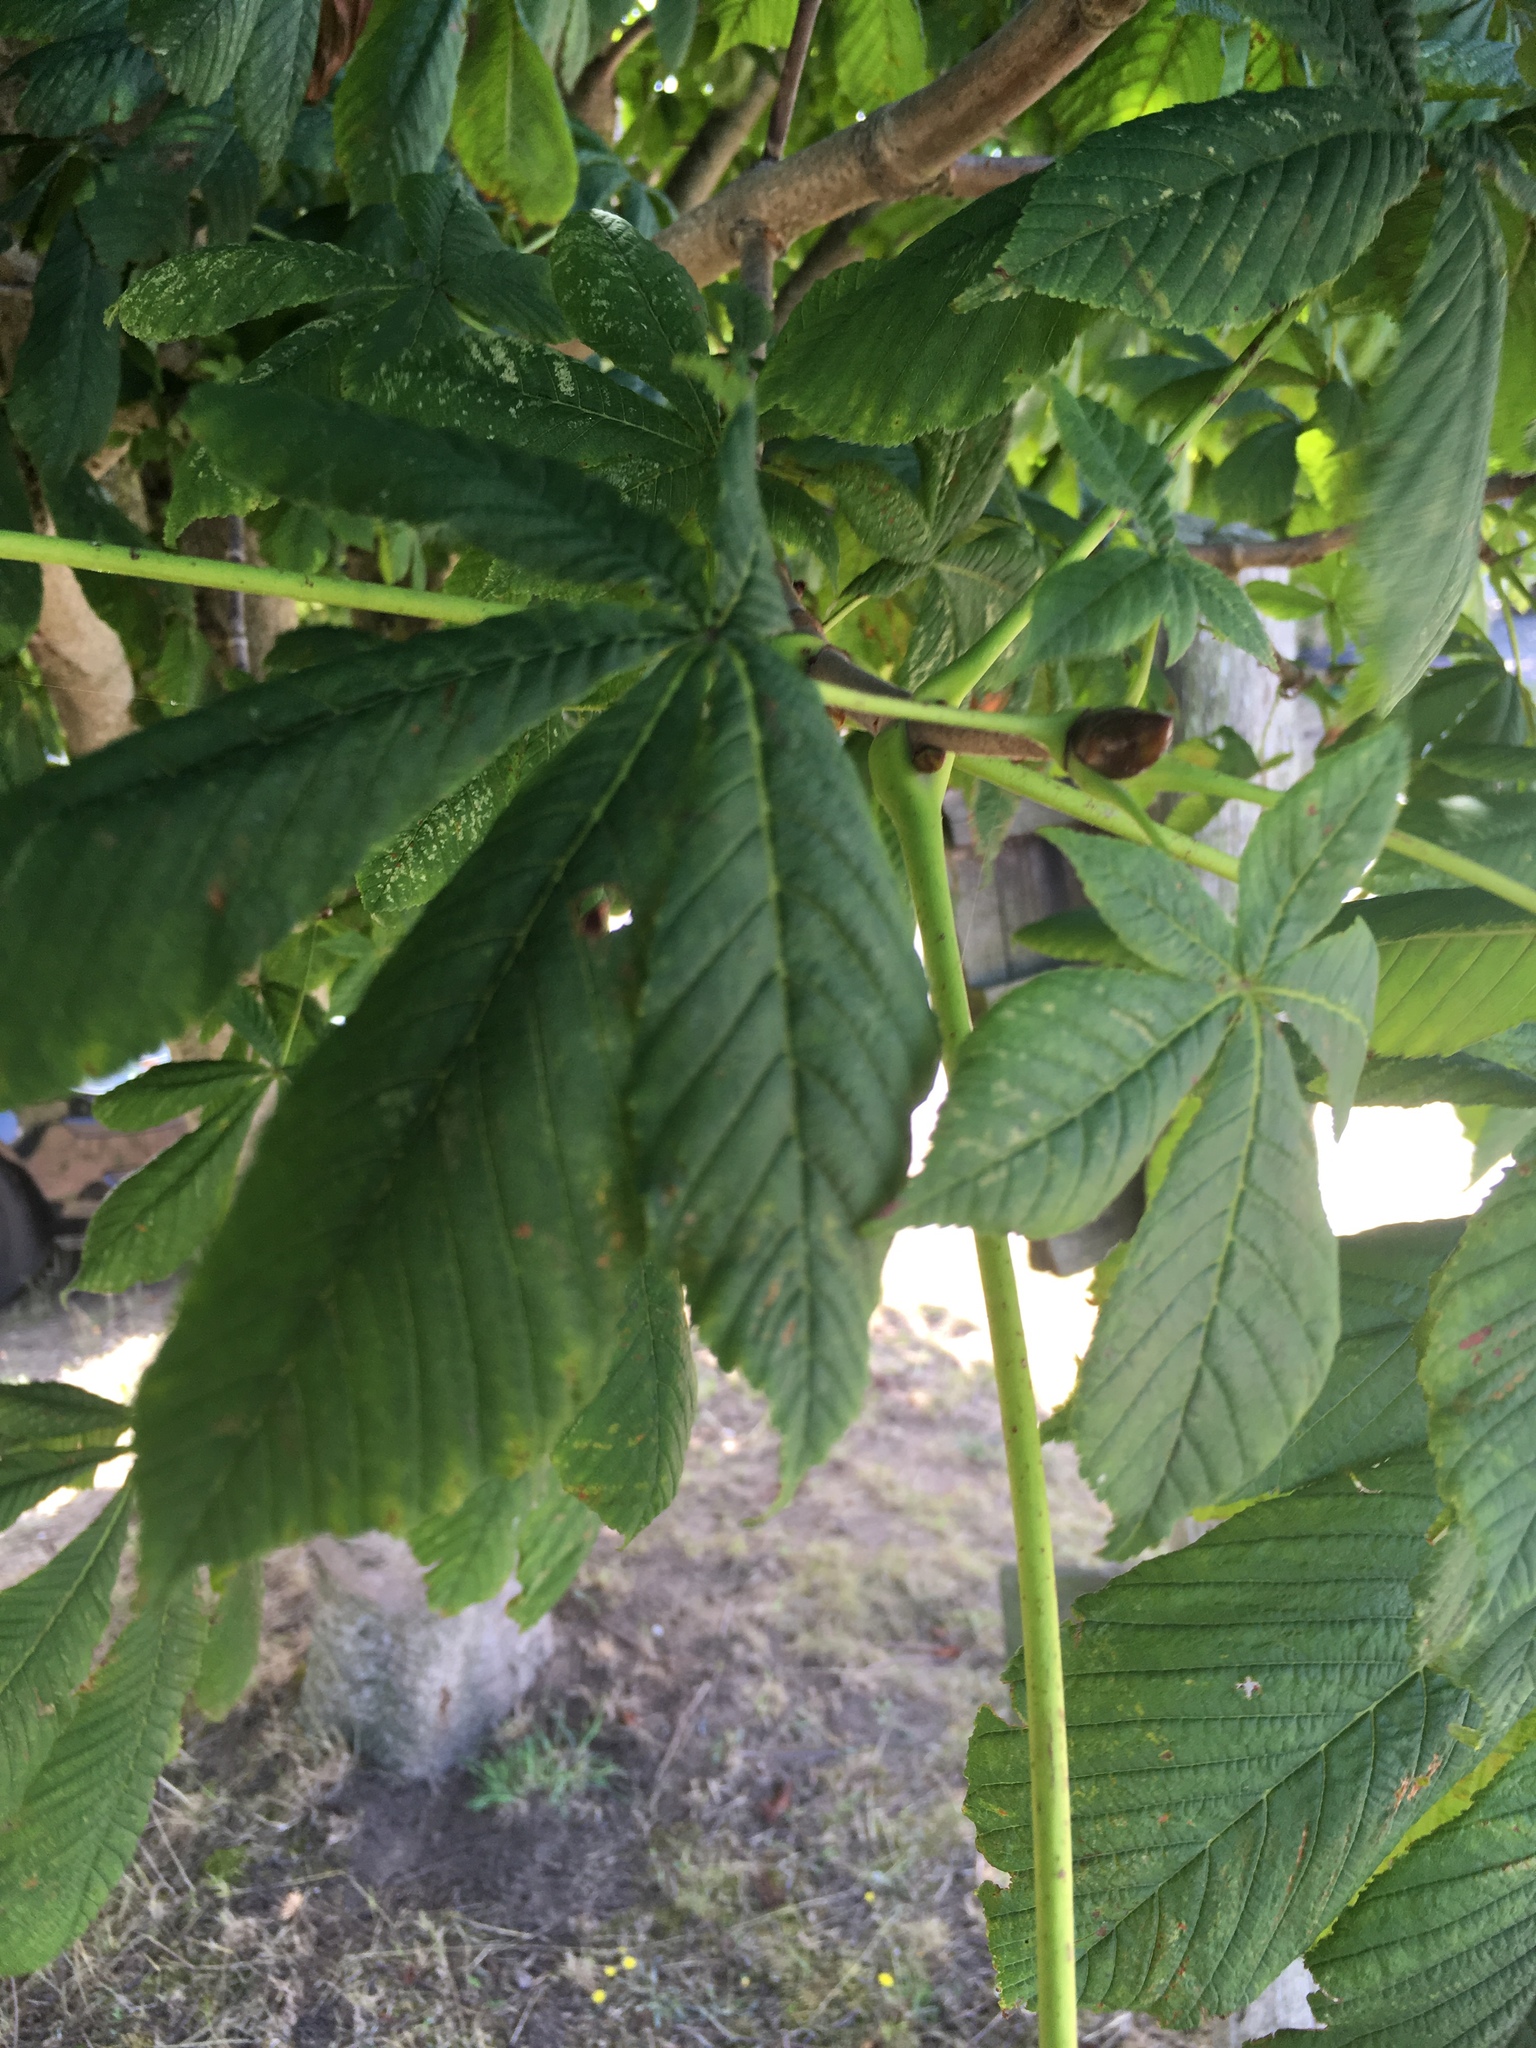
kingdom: Plantae
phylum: Tracheophyta
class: Magnoliopsida
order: Sapindales
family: Sapindaceae
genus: Aesculus
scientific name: Aesculus hippocastanum
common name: Horse-chestnut
